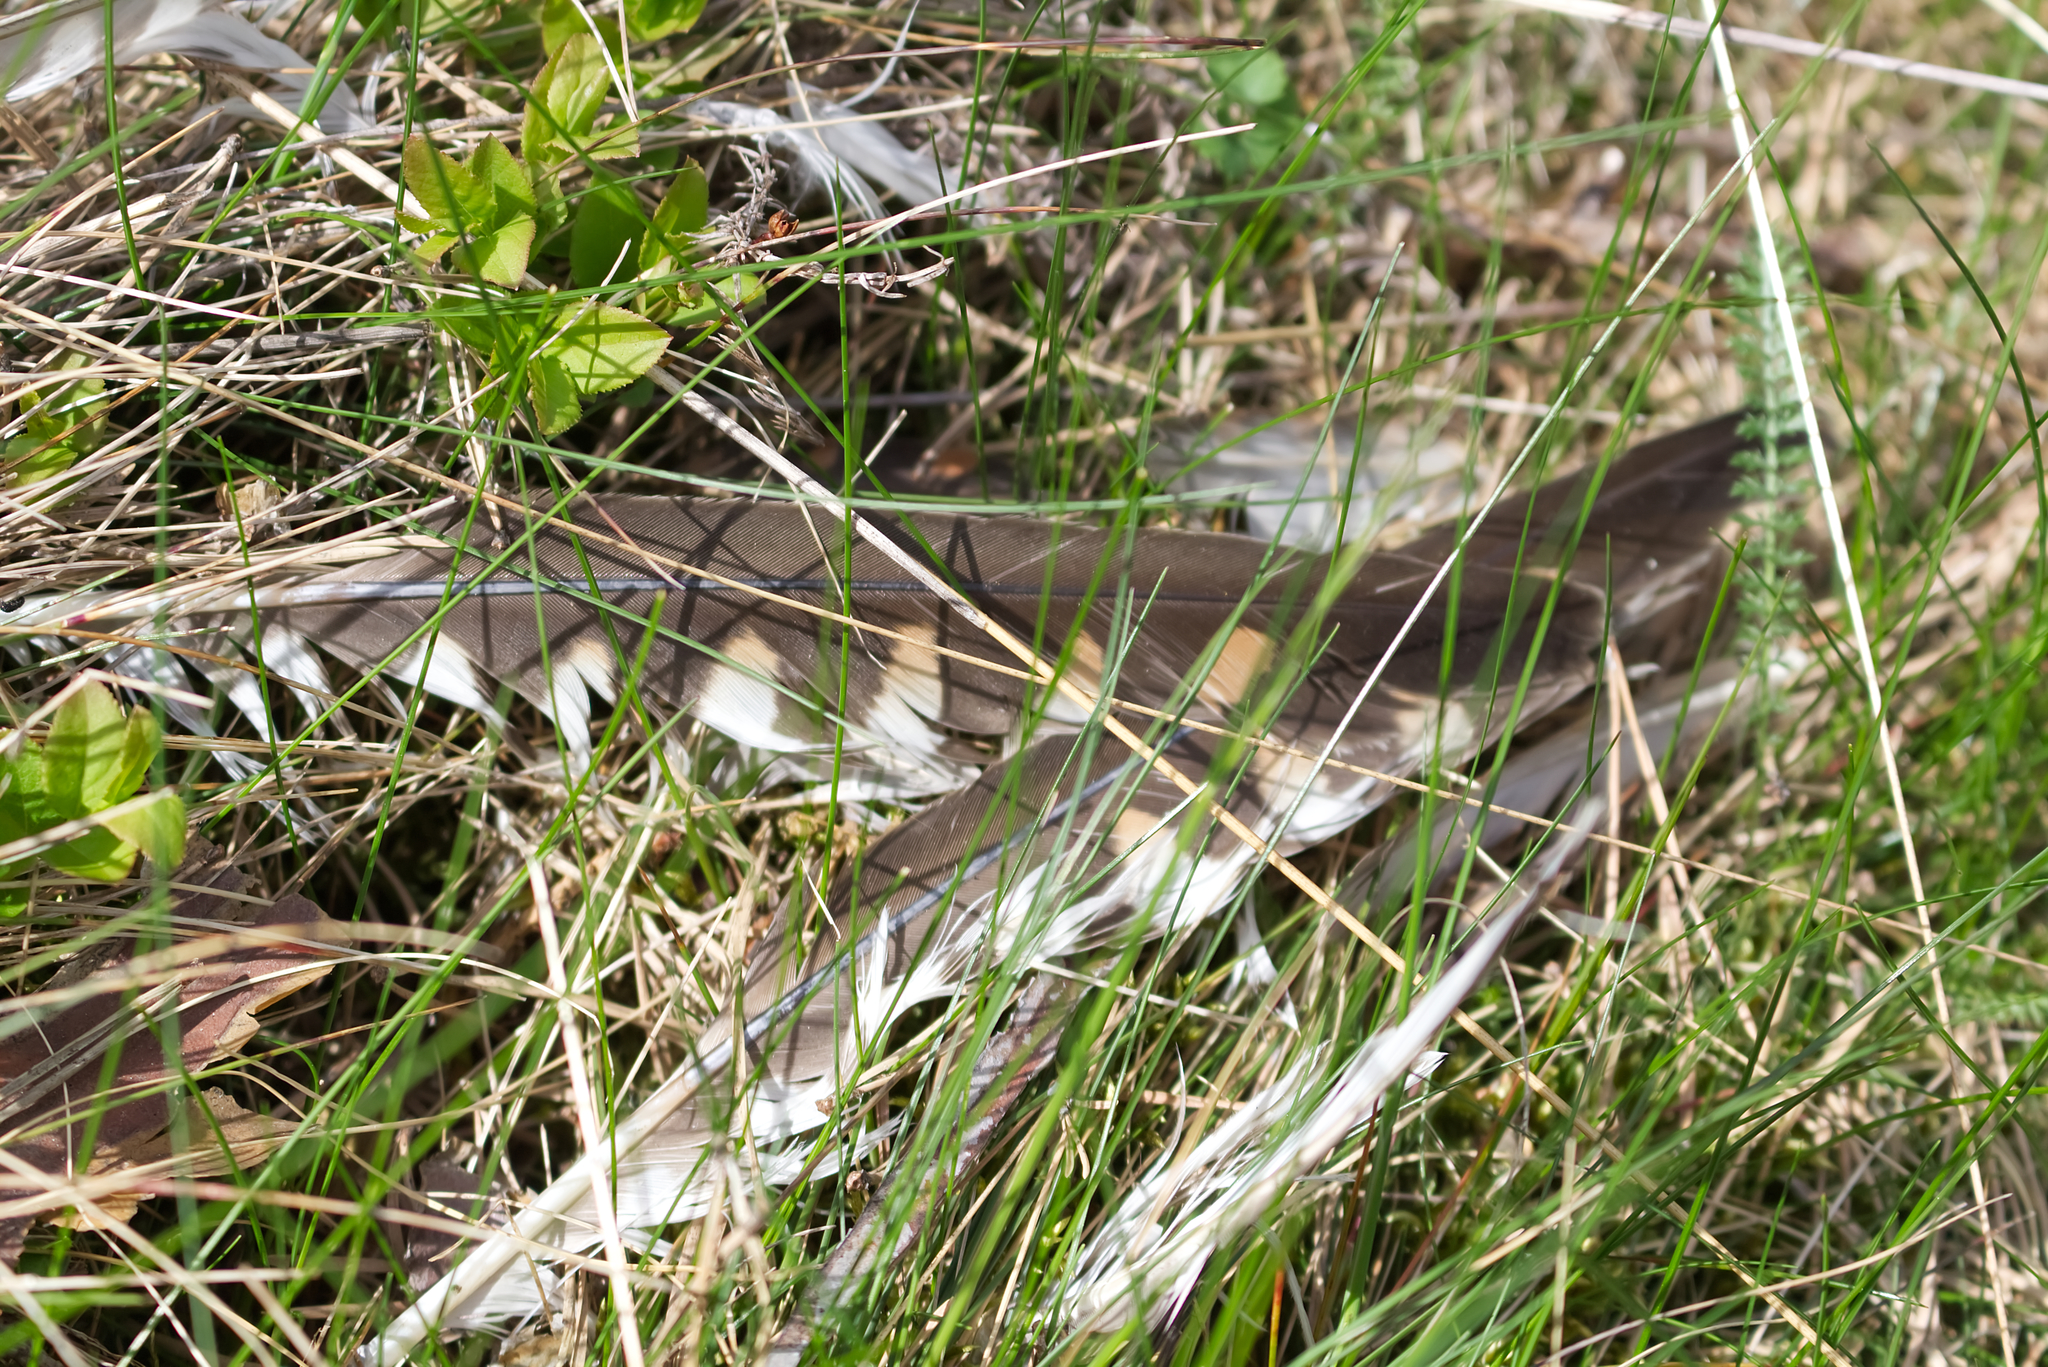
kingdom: Animalia
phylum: Chordata
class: Aves
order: Falconiformes
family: Falconidae
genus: Falco
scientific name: Falco tinnunculus
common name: Common kestrel
